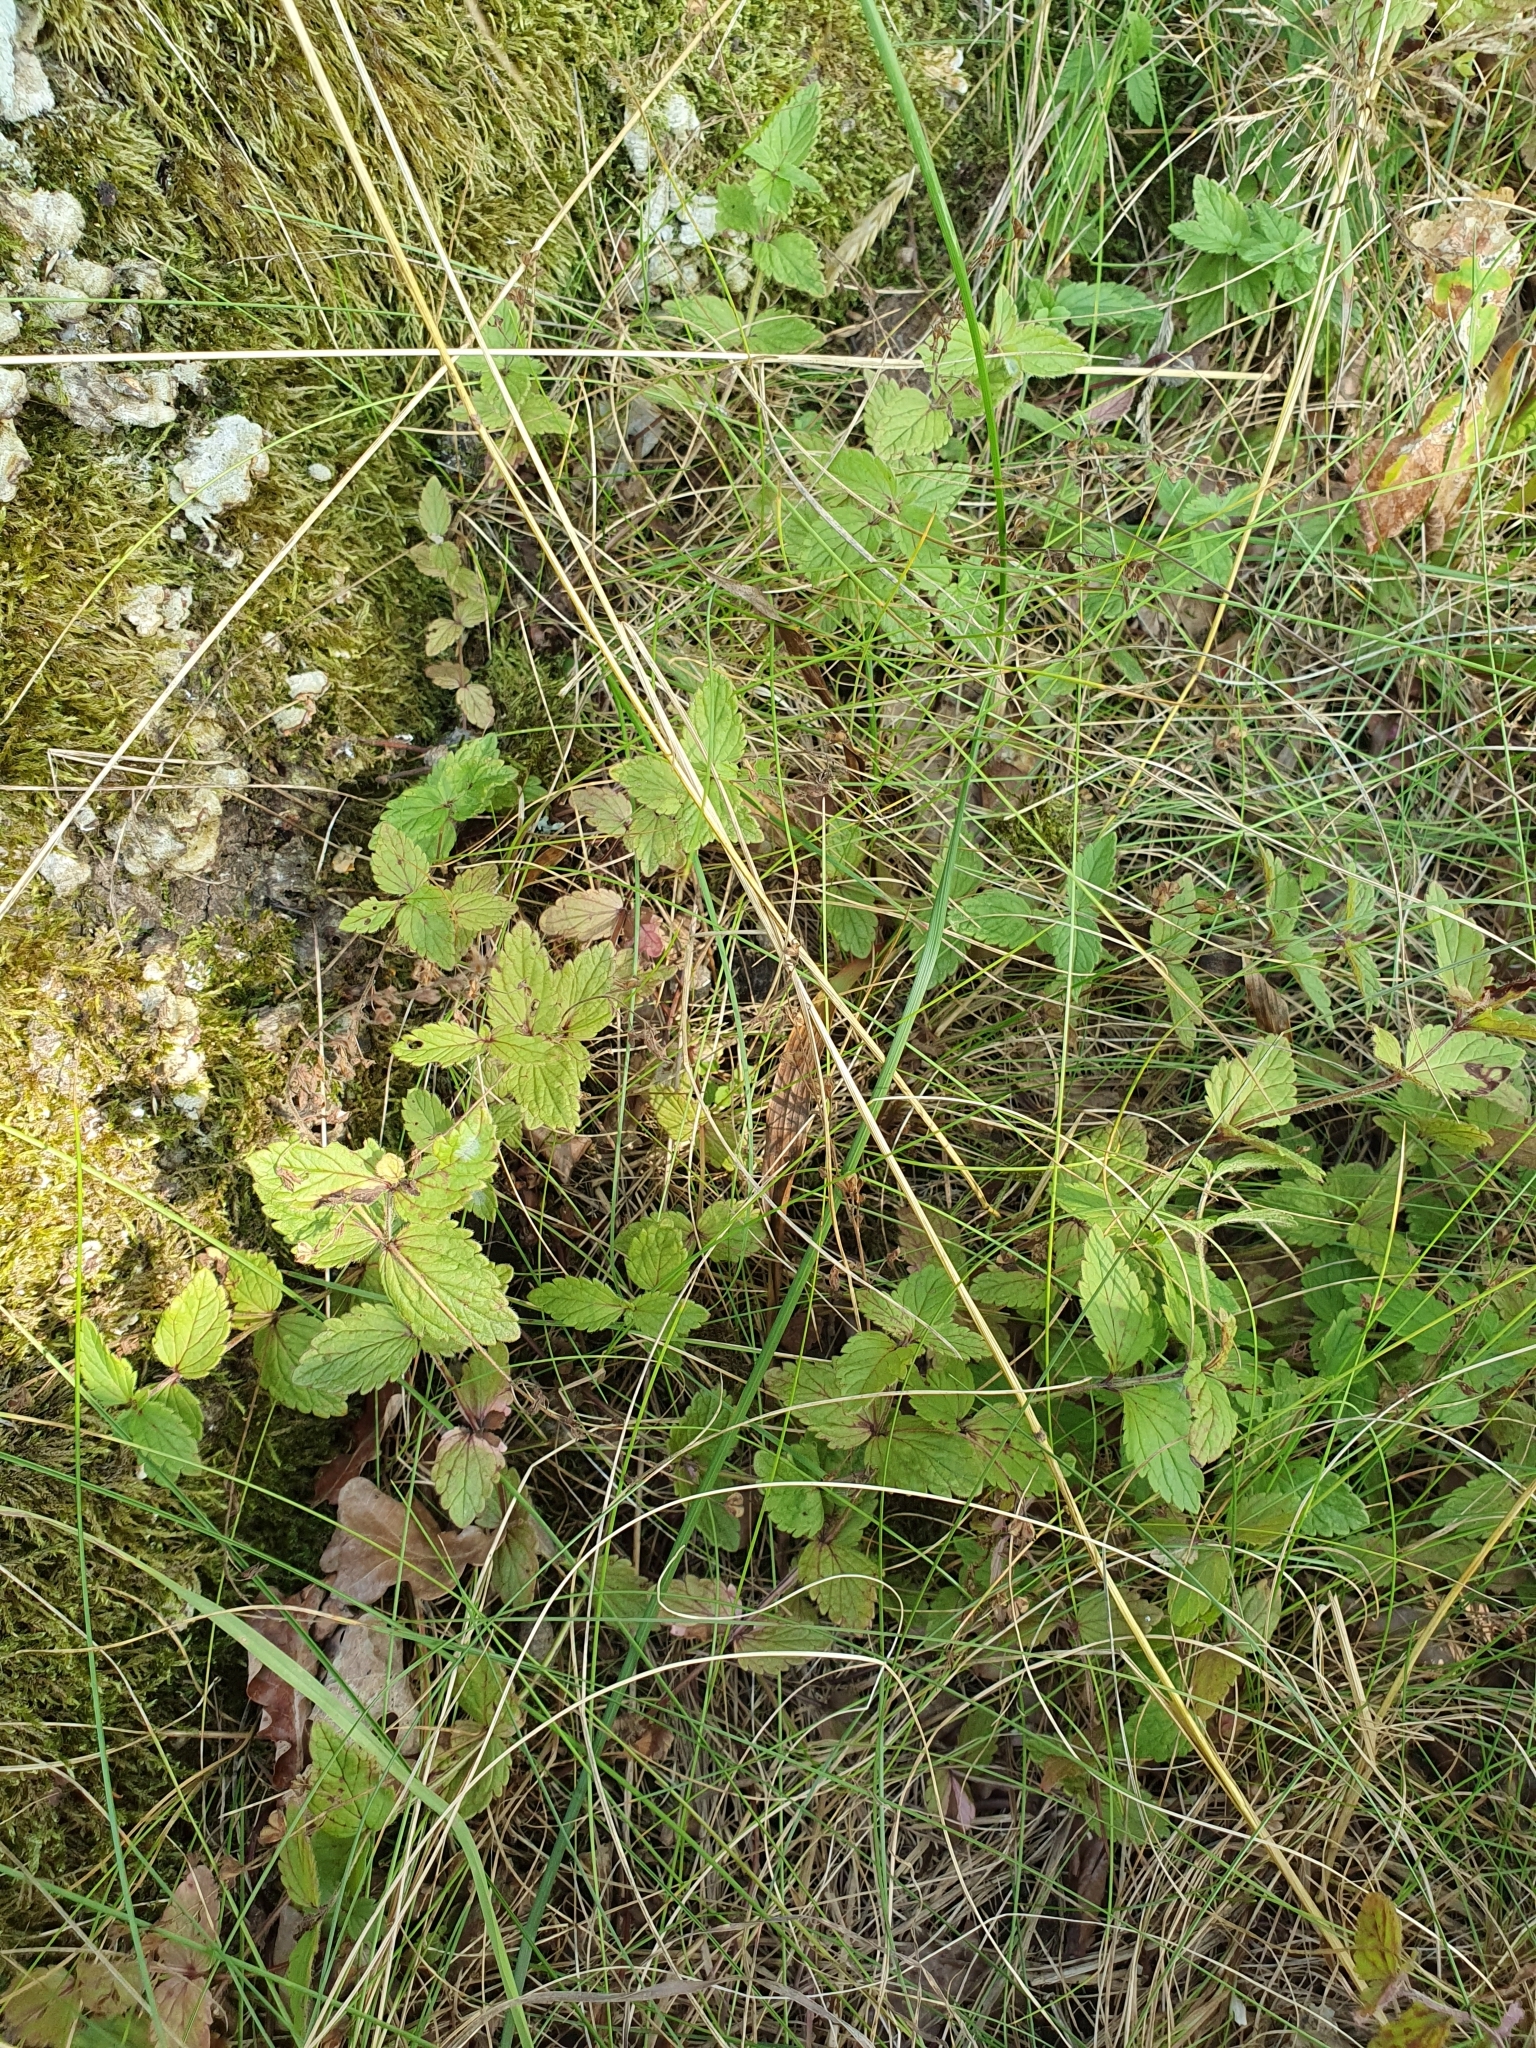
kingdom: Plantae
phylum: Tracheophyta
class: Magnoliopsida
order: Lamiales
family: Plantaginaceae
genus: Veronica
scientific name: Veronica chamaedrys
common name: Germander speedwell
